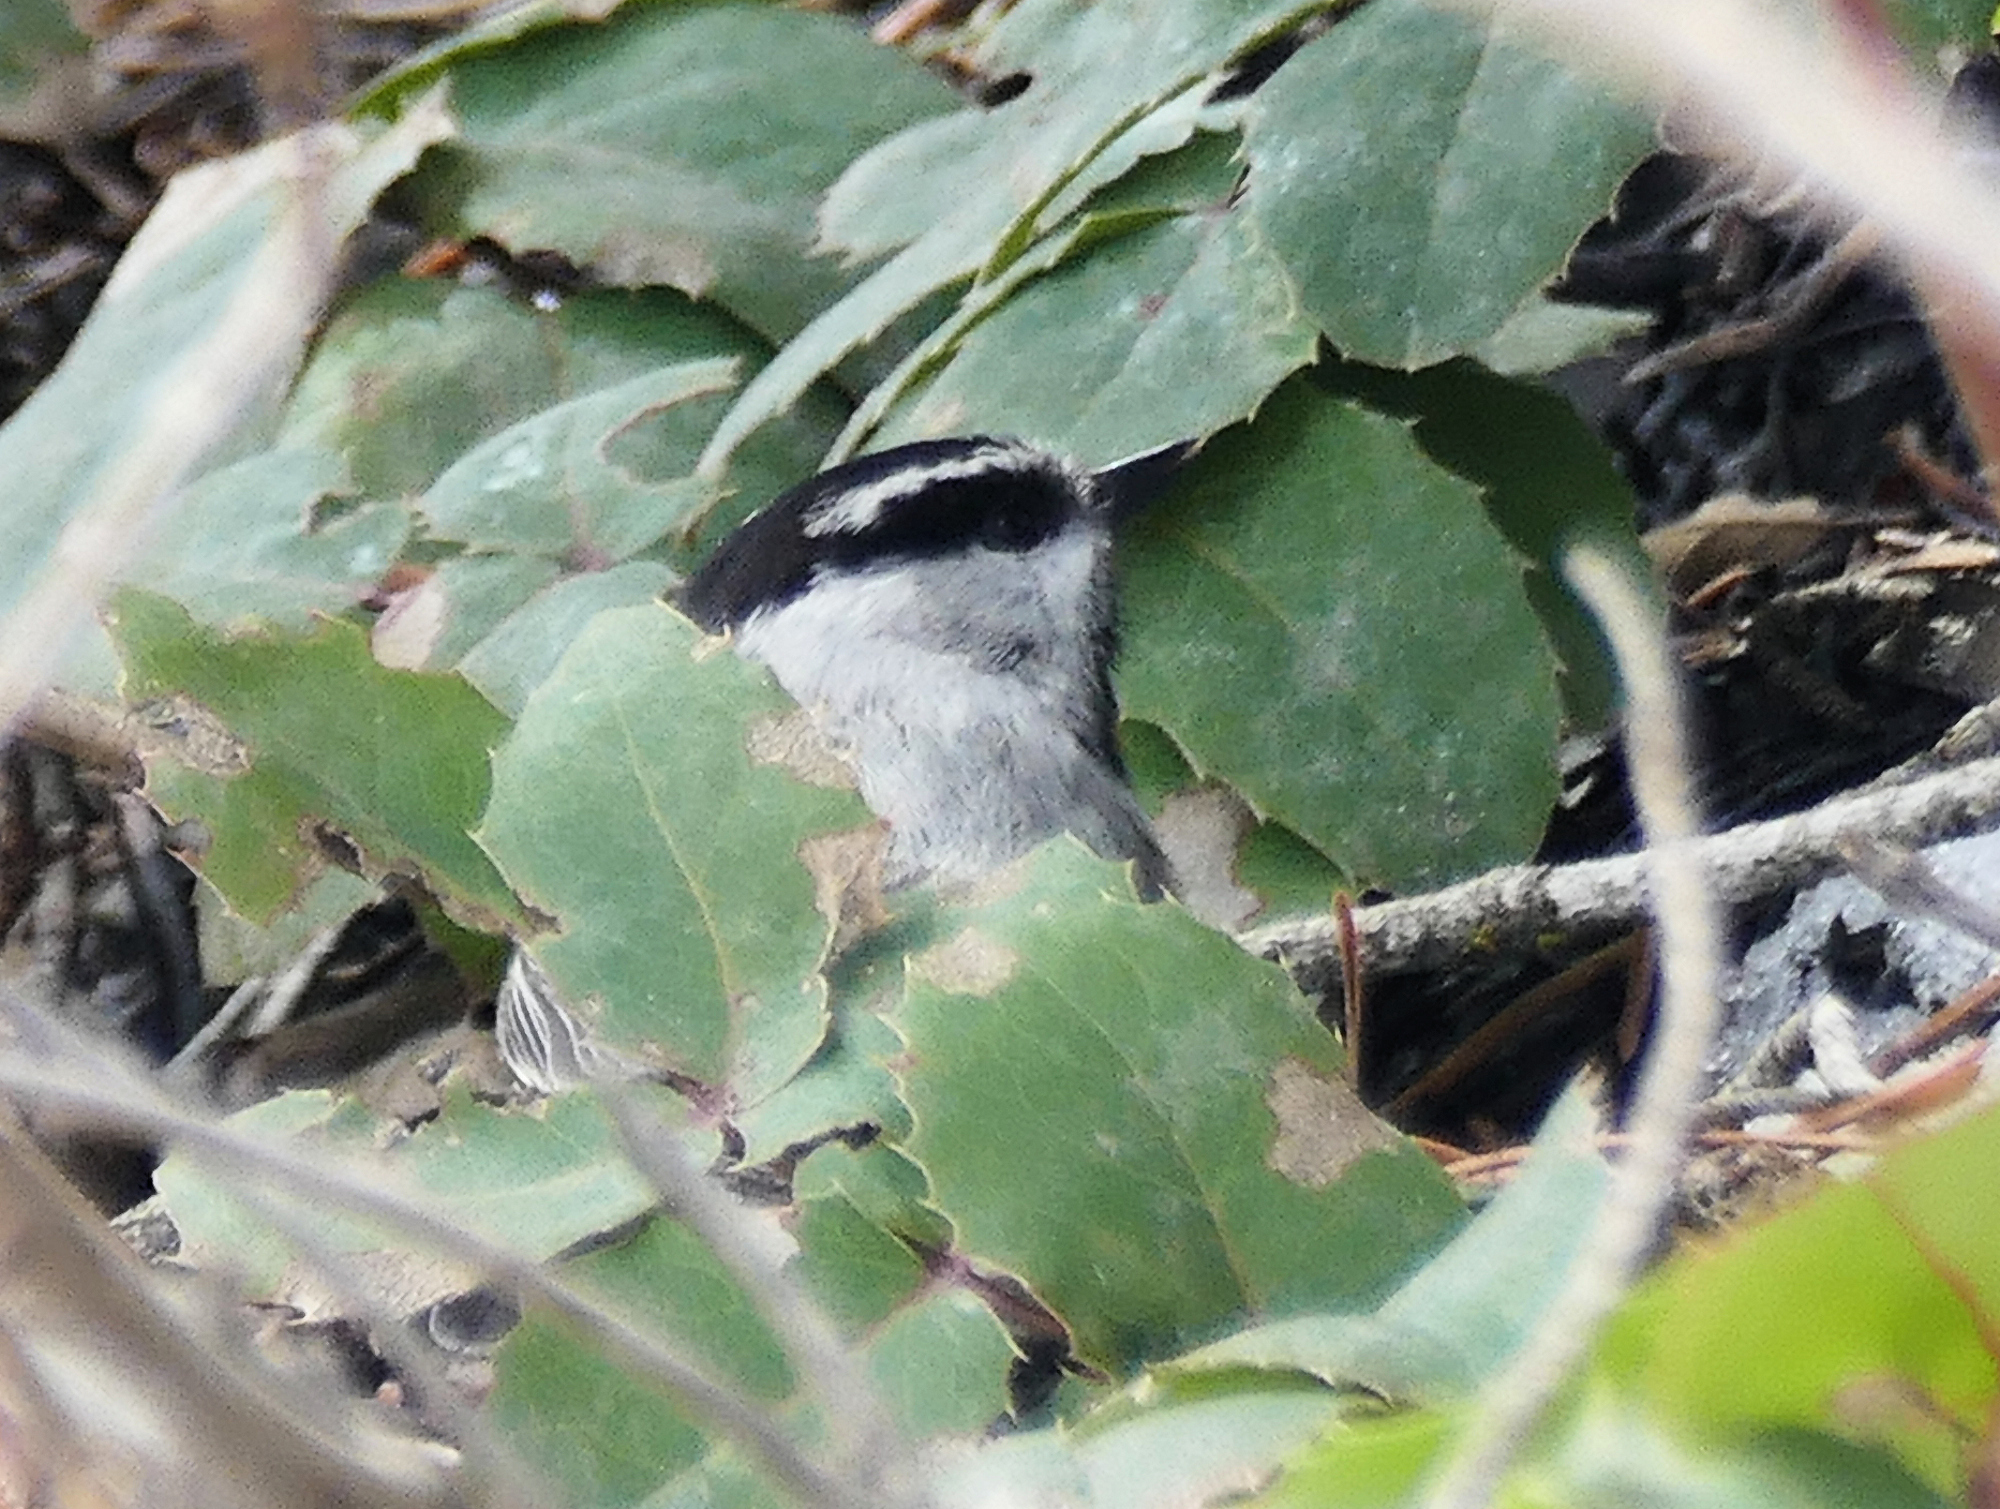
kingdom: Animalia
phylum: Chordata
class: Aves
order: Passeriformes
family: Paridae
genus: Poecile
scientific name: Poecile gambeli
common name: Mountain chickadee
